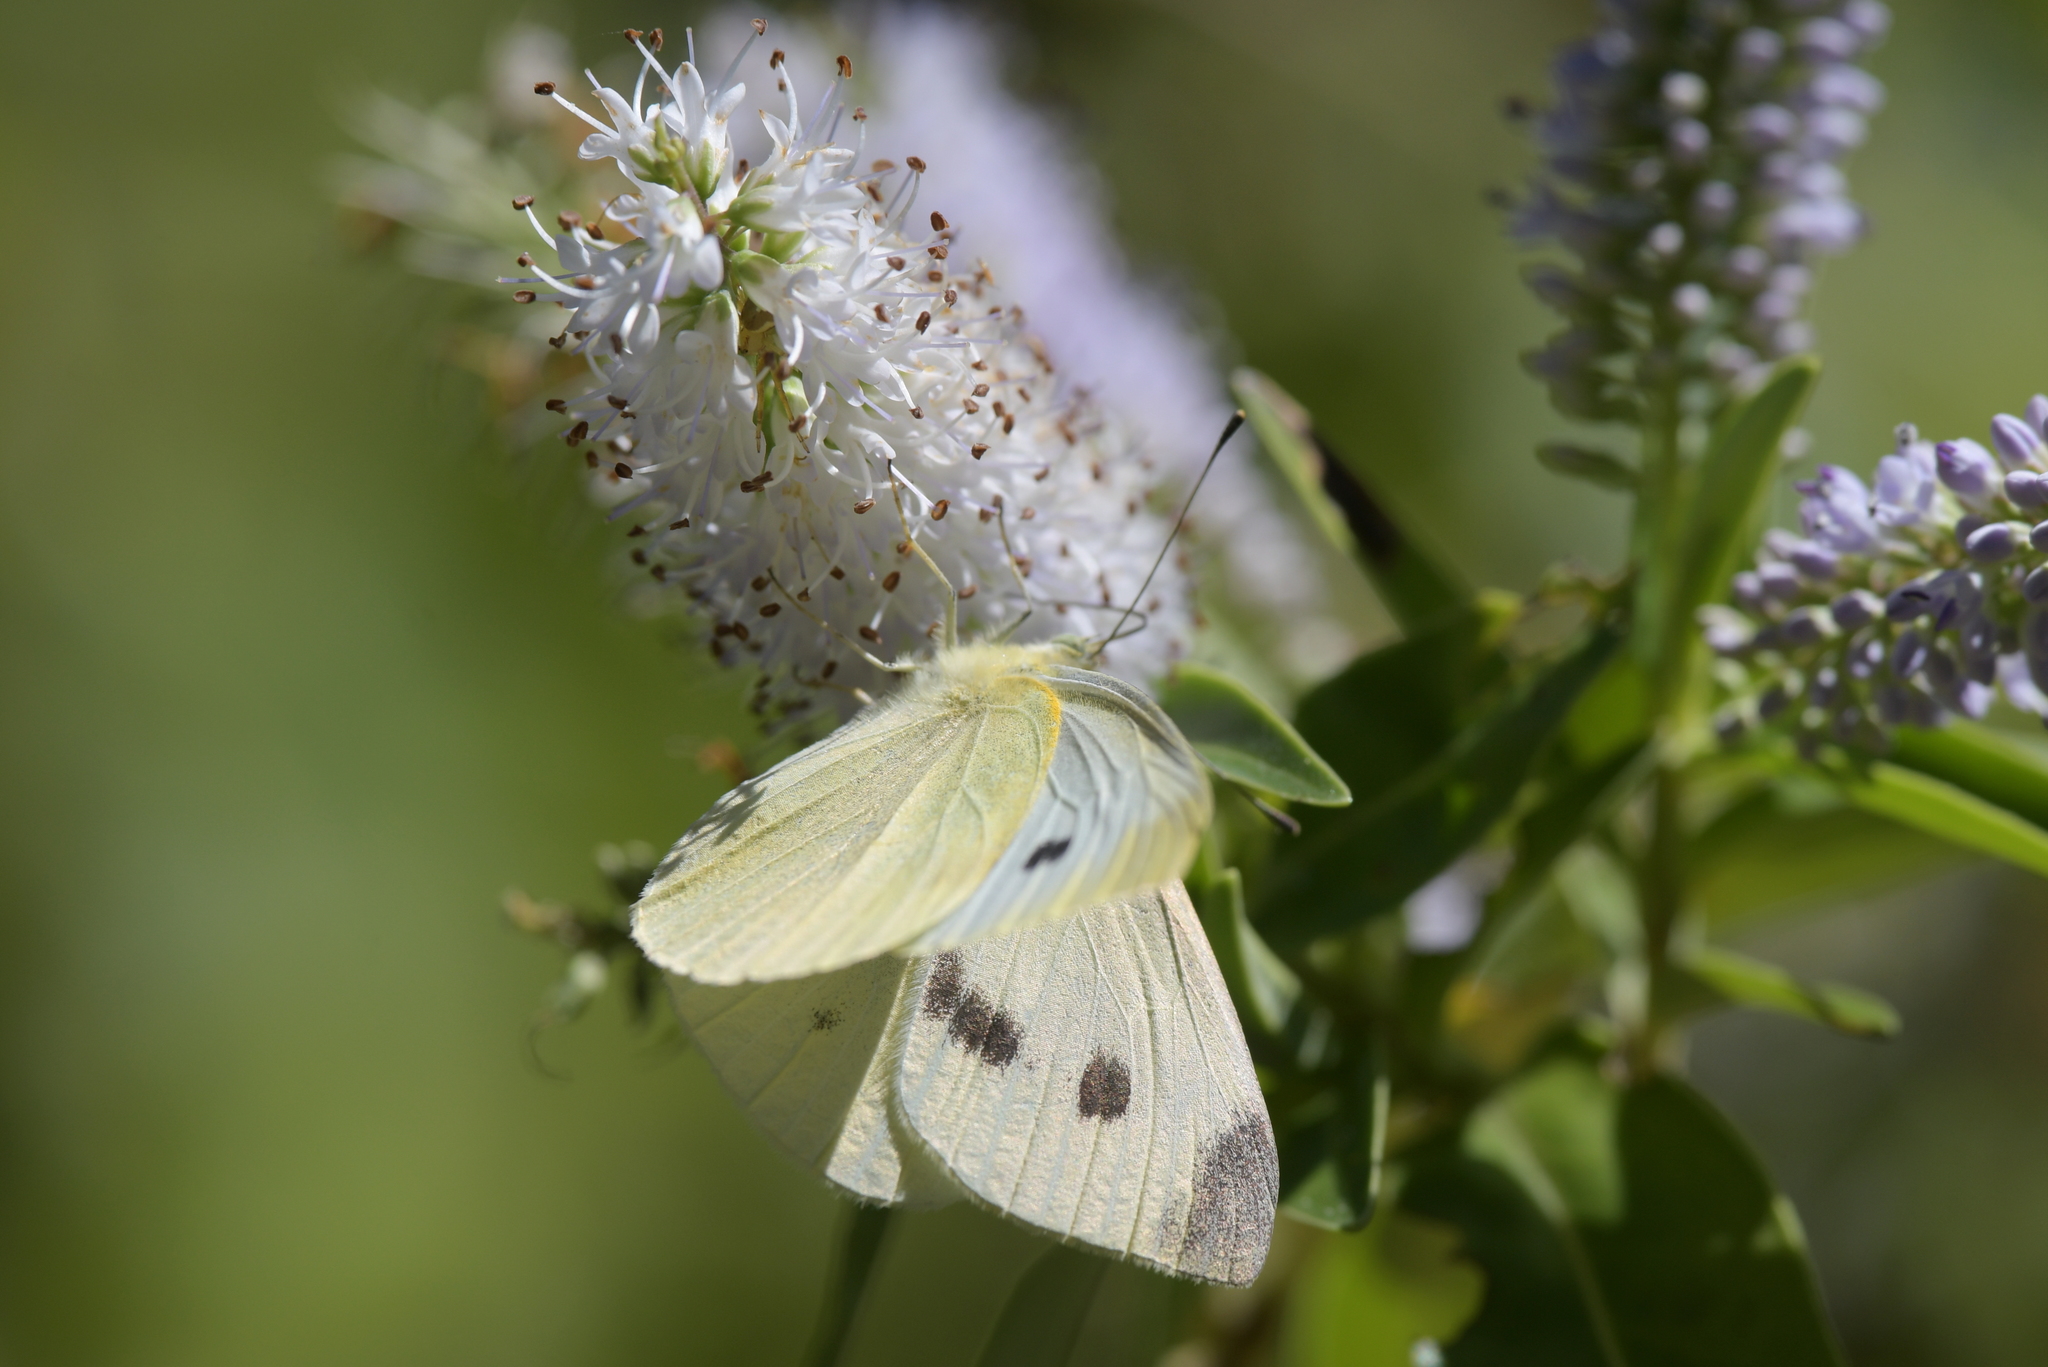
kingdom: Animalia
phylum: Arthropoda
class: Insecta
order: Lepidoptera
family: Pieridae
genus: Pieris
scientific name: Pieris rapae
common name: Small white
